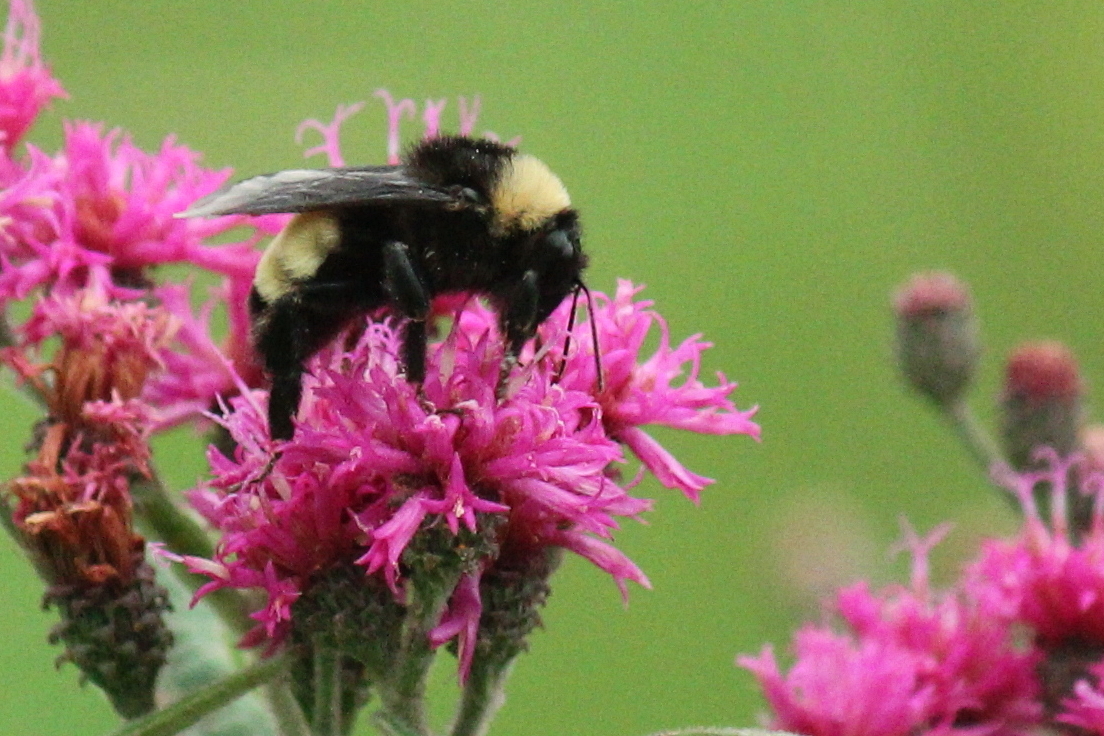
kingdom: Animalia
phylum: Arthropoda
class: Insecta
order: Hymenoptera
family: Apidae
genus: Bombus
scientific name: Bombus pensylvanicus
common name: Bumble bee
